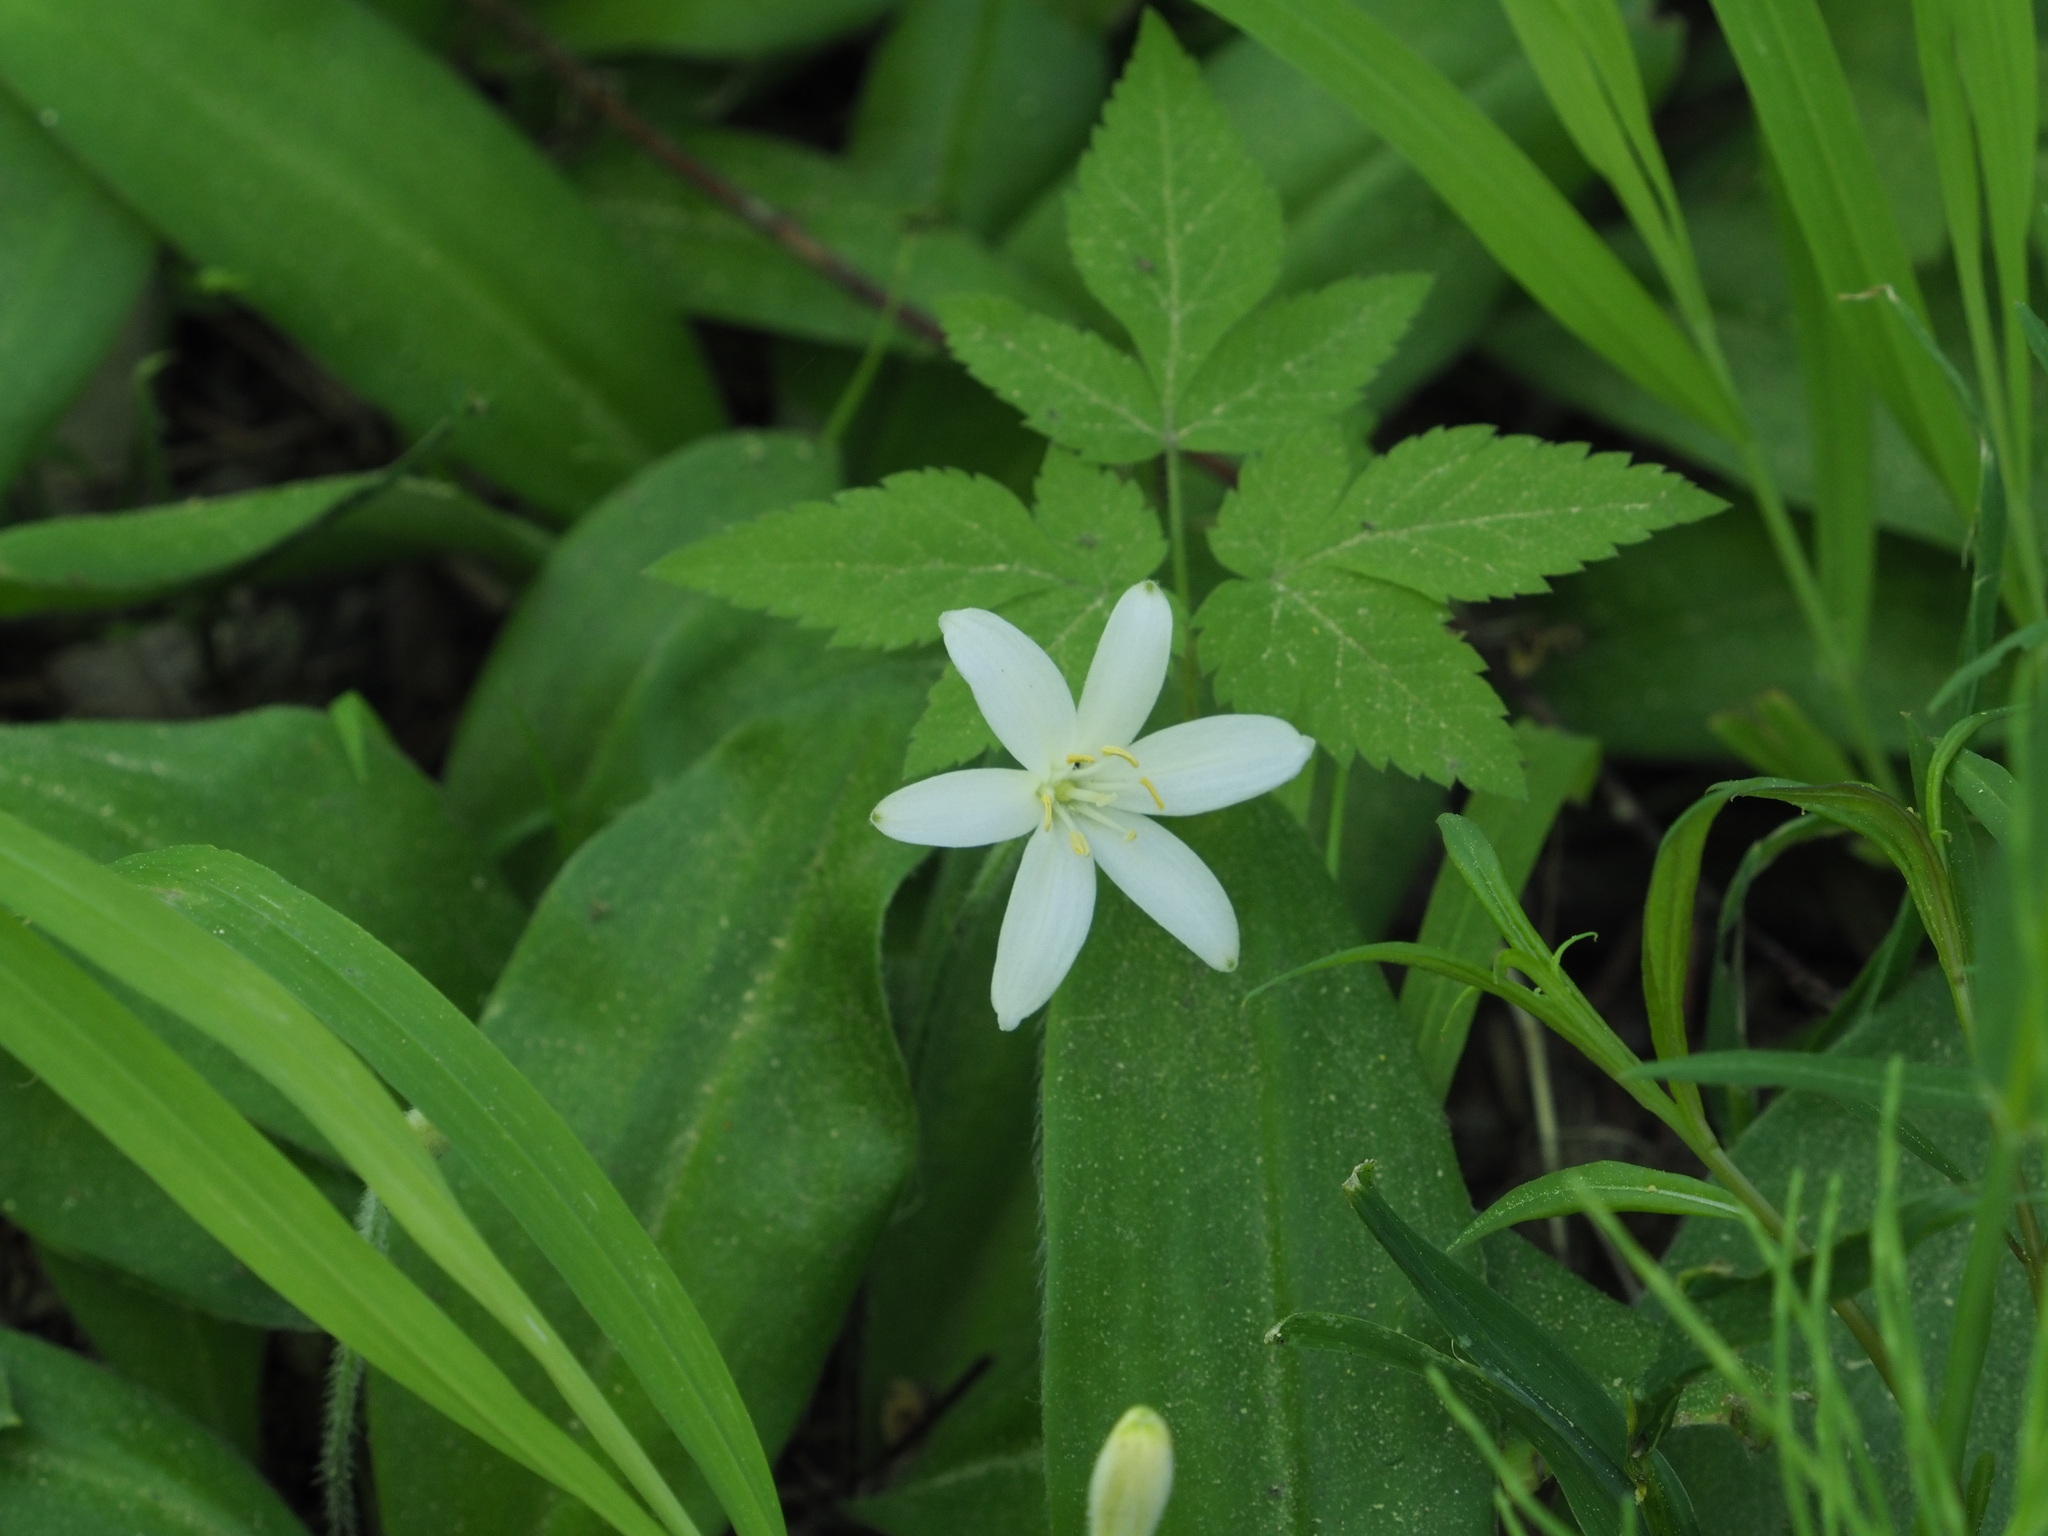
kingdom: Plantae
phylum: Tracheophyta
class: Liliopsida
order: Liliales
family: Liliaceae
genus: Clintonia
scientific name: Clintonia uniflora
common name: Queen's cup
